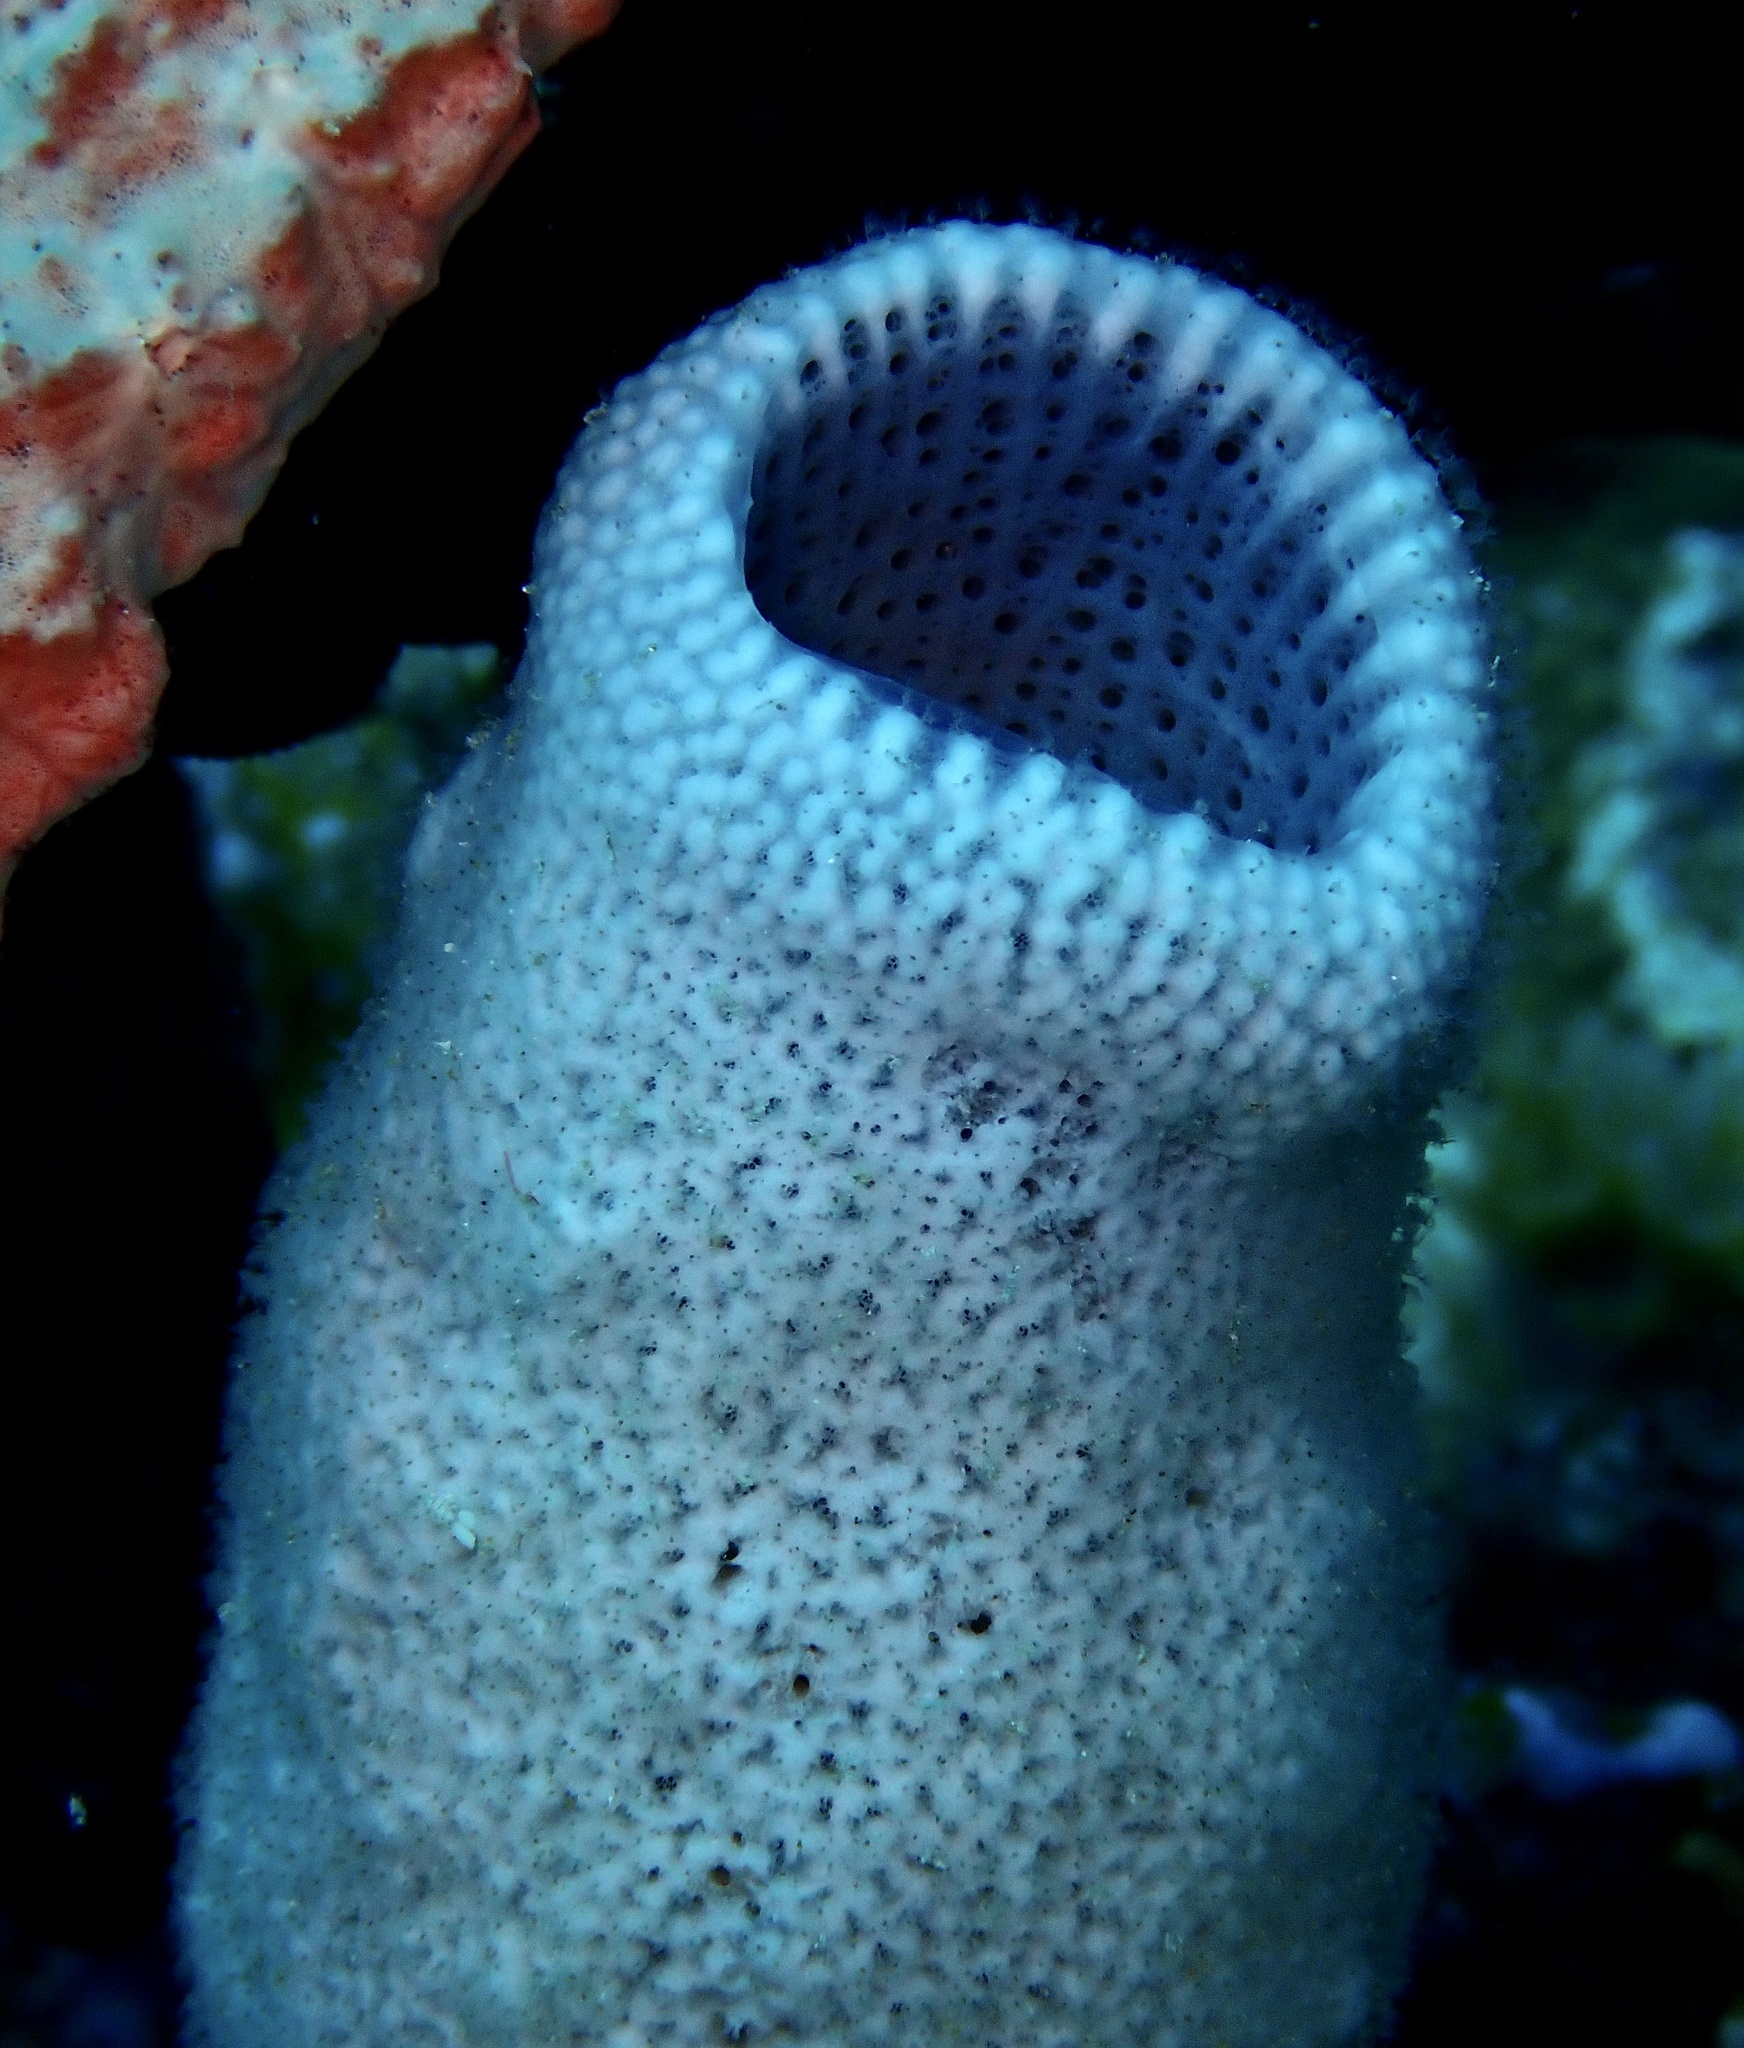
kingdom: Animalia
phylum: Porifera
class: Demospongiae
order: Haplosclerida
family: Niphatidae
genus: Niphates
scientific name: Niphates olemda
